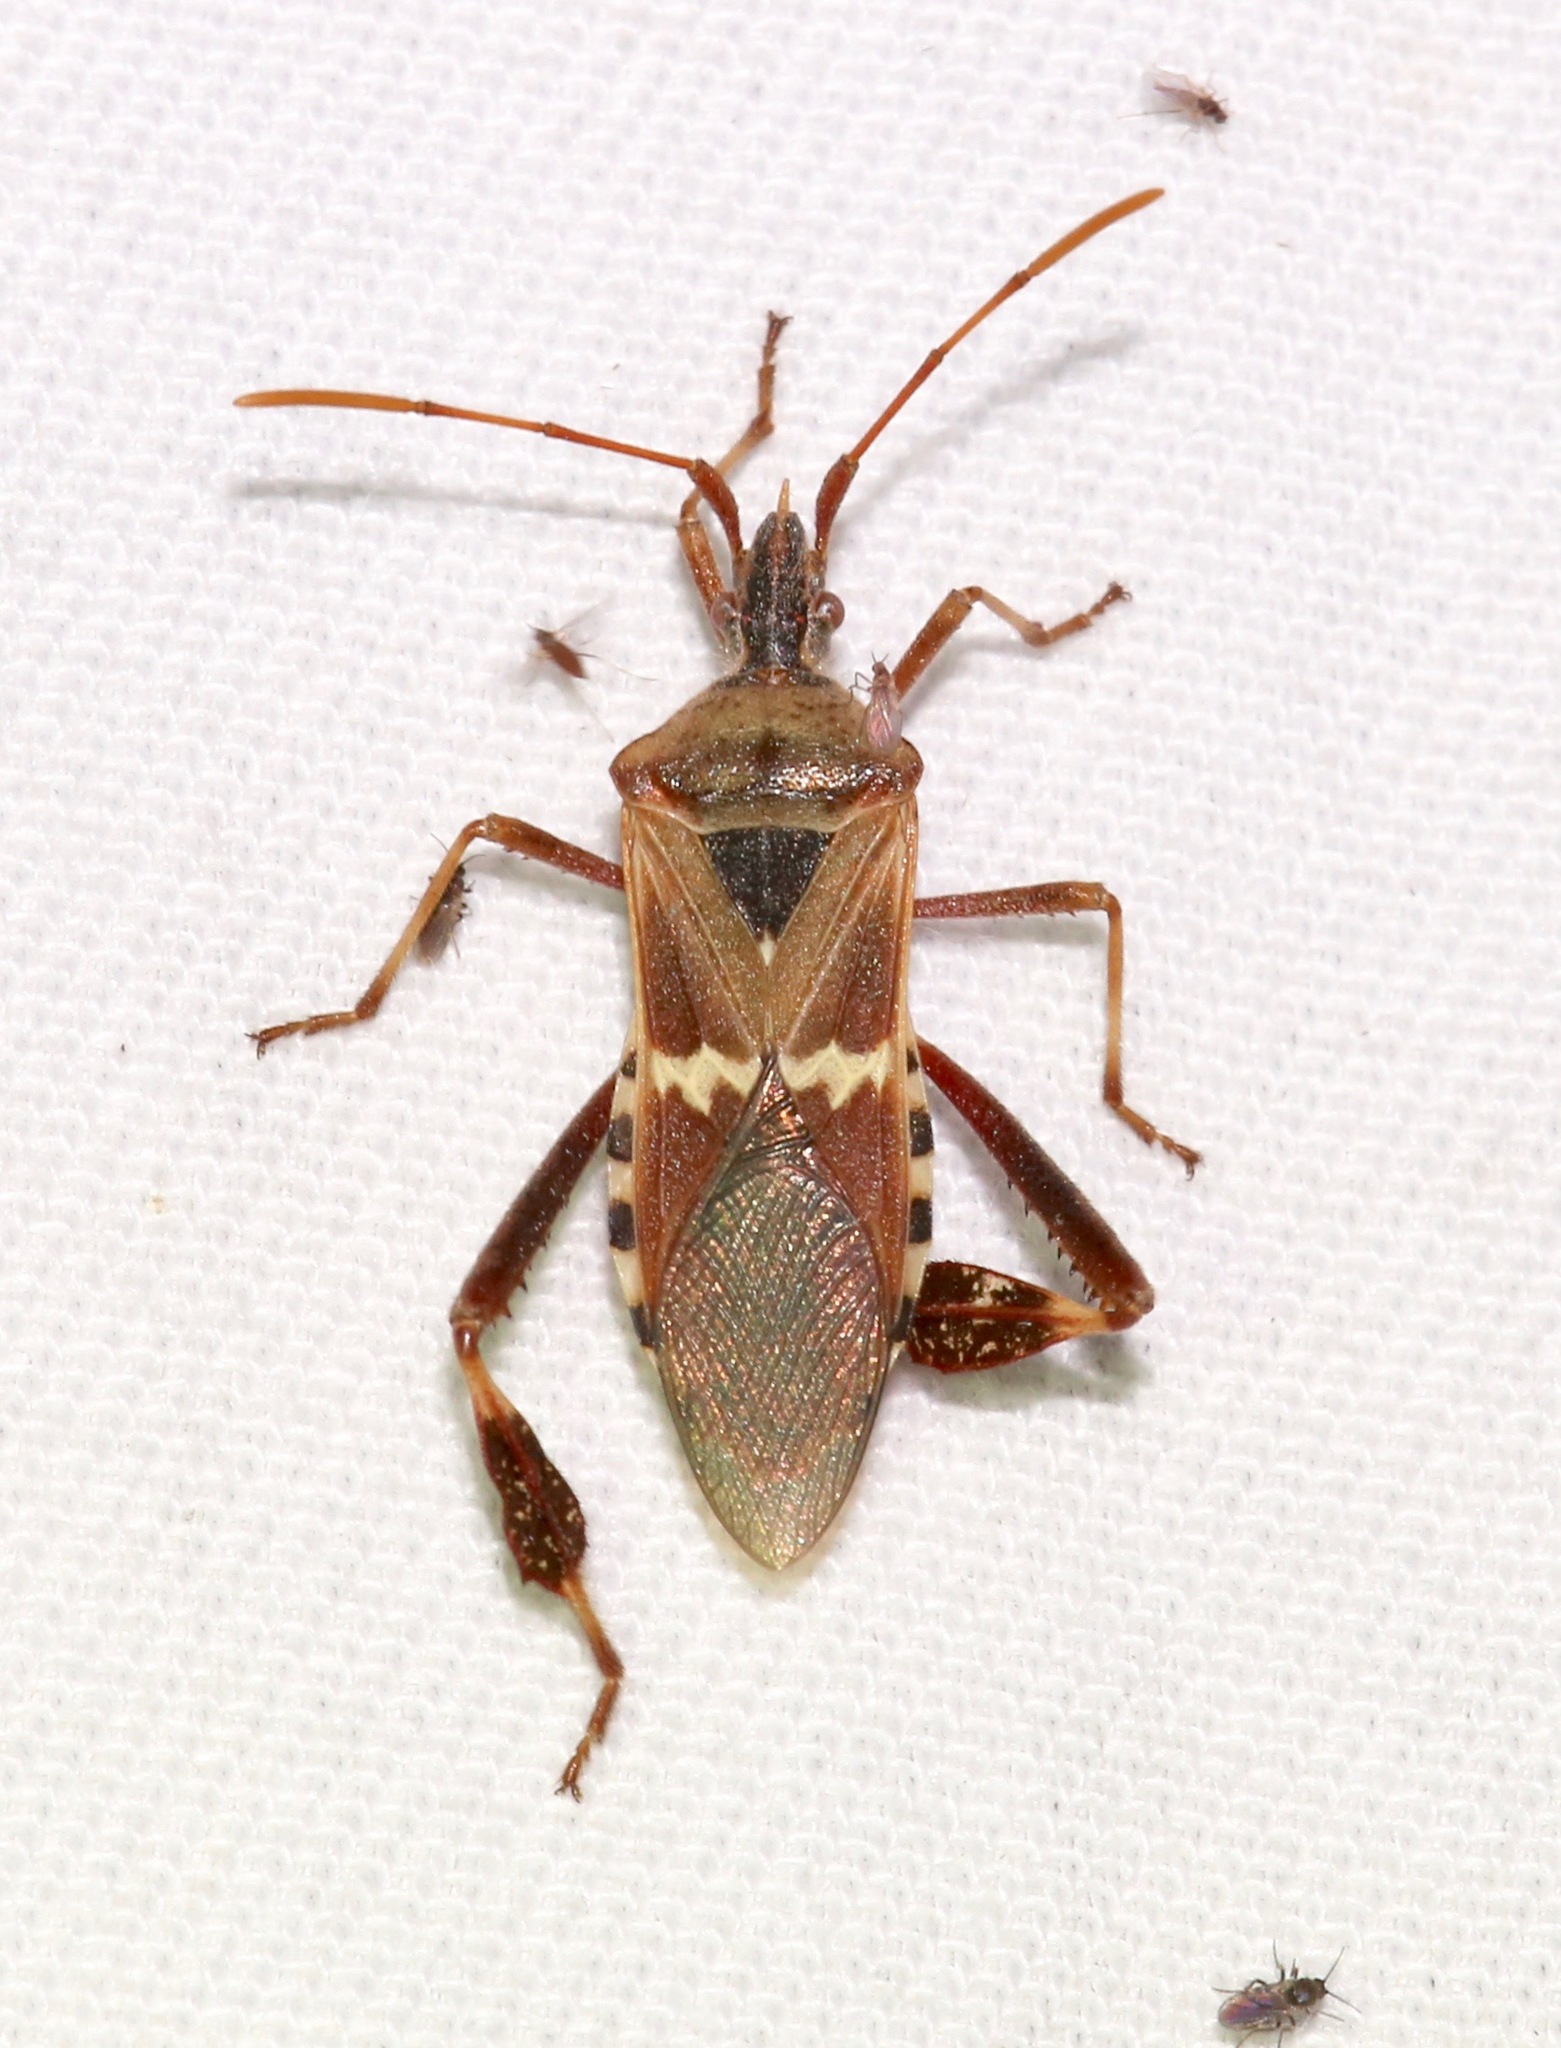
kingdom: Animalia
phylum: Arthropoda
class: Insecta
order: Hemiptera
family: Coreidae
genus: Leptoglossus
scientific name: Leptoglossus clypealis
